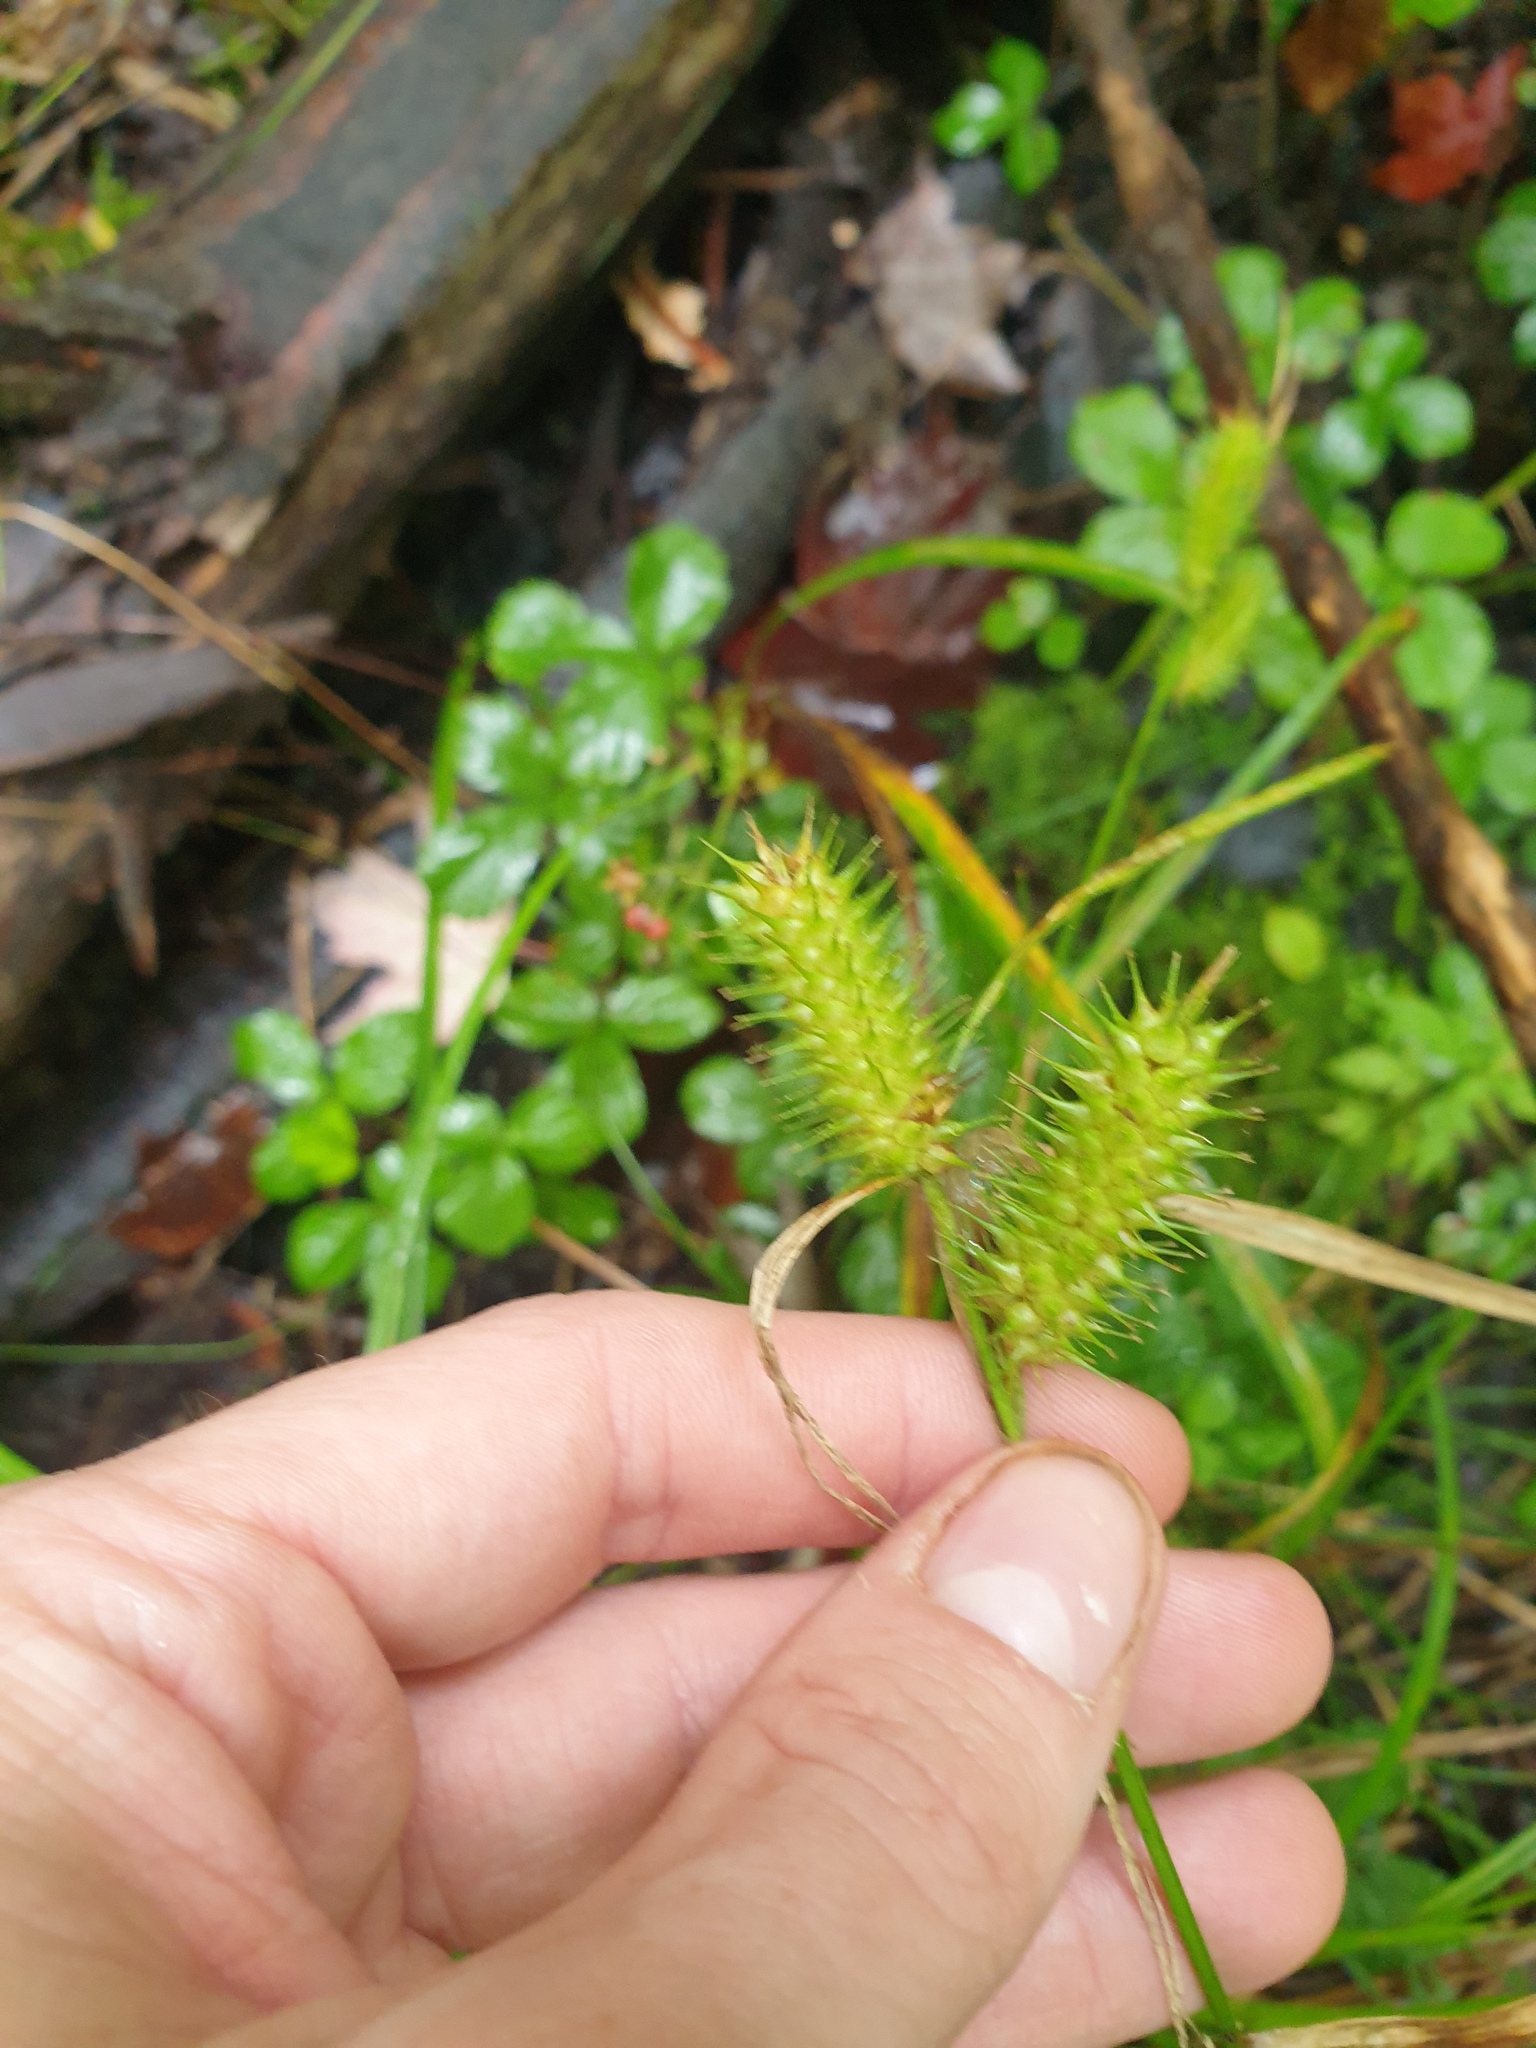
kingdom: Plantae
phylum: Tracheophyta
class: Liliopsida
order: Poales
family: Cyperaceae
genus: Carex
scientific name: Carex lurida
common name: Sallow sedge
